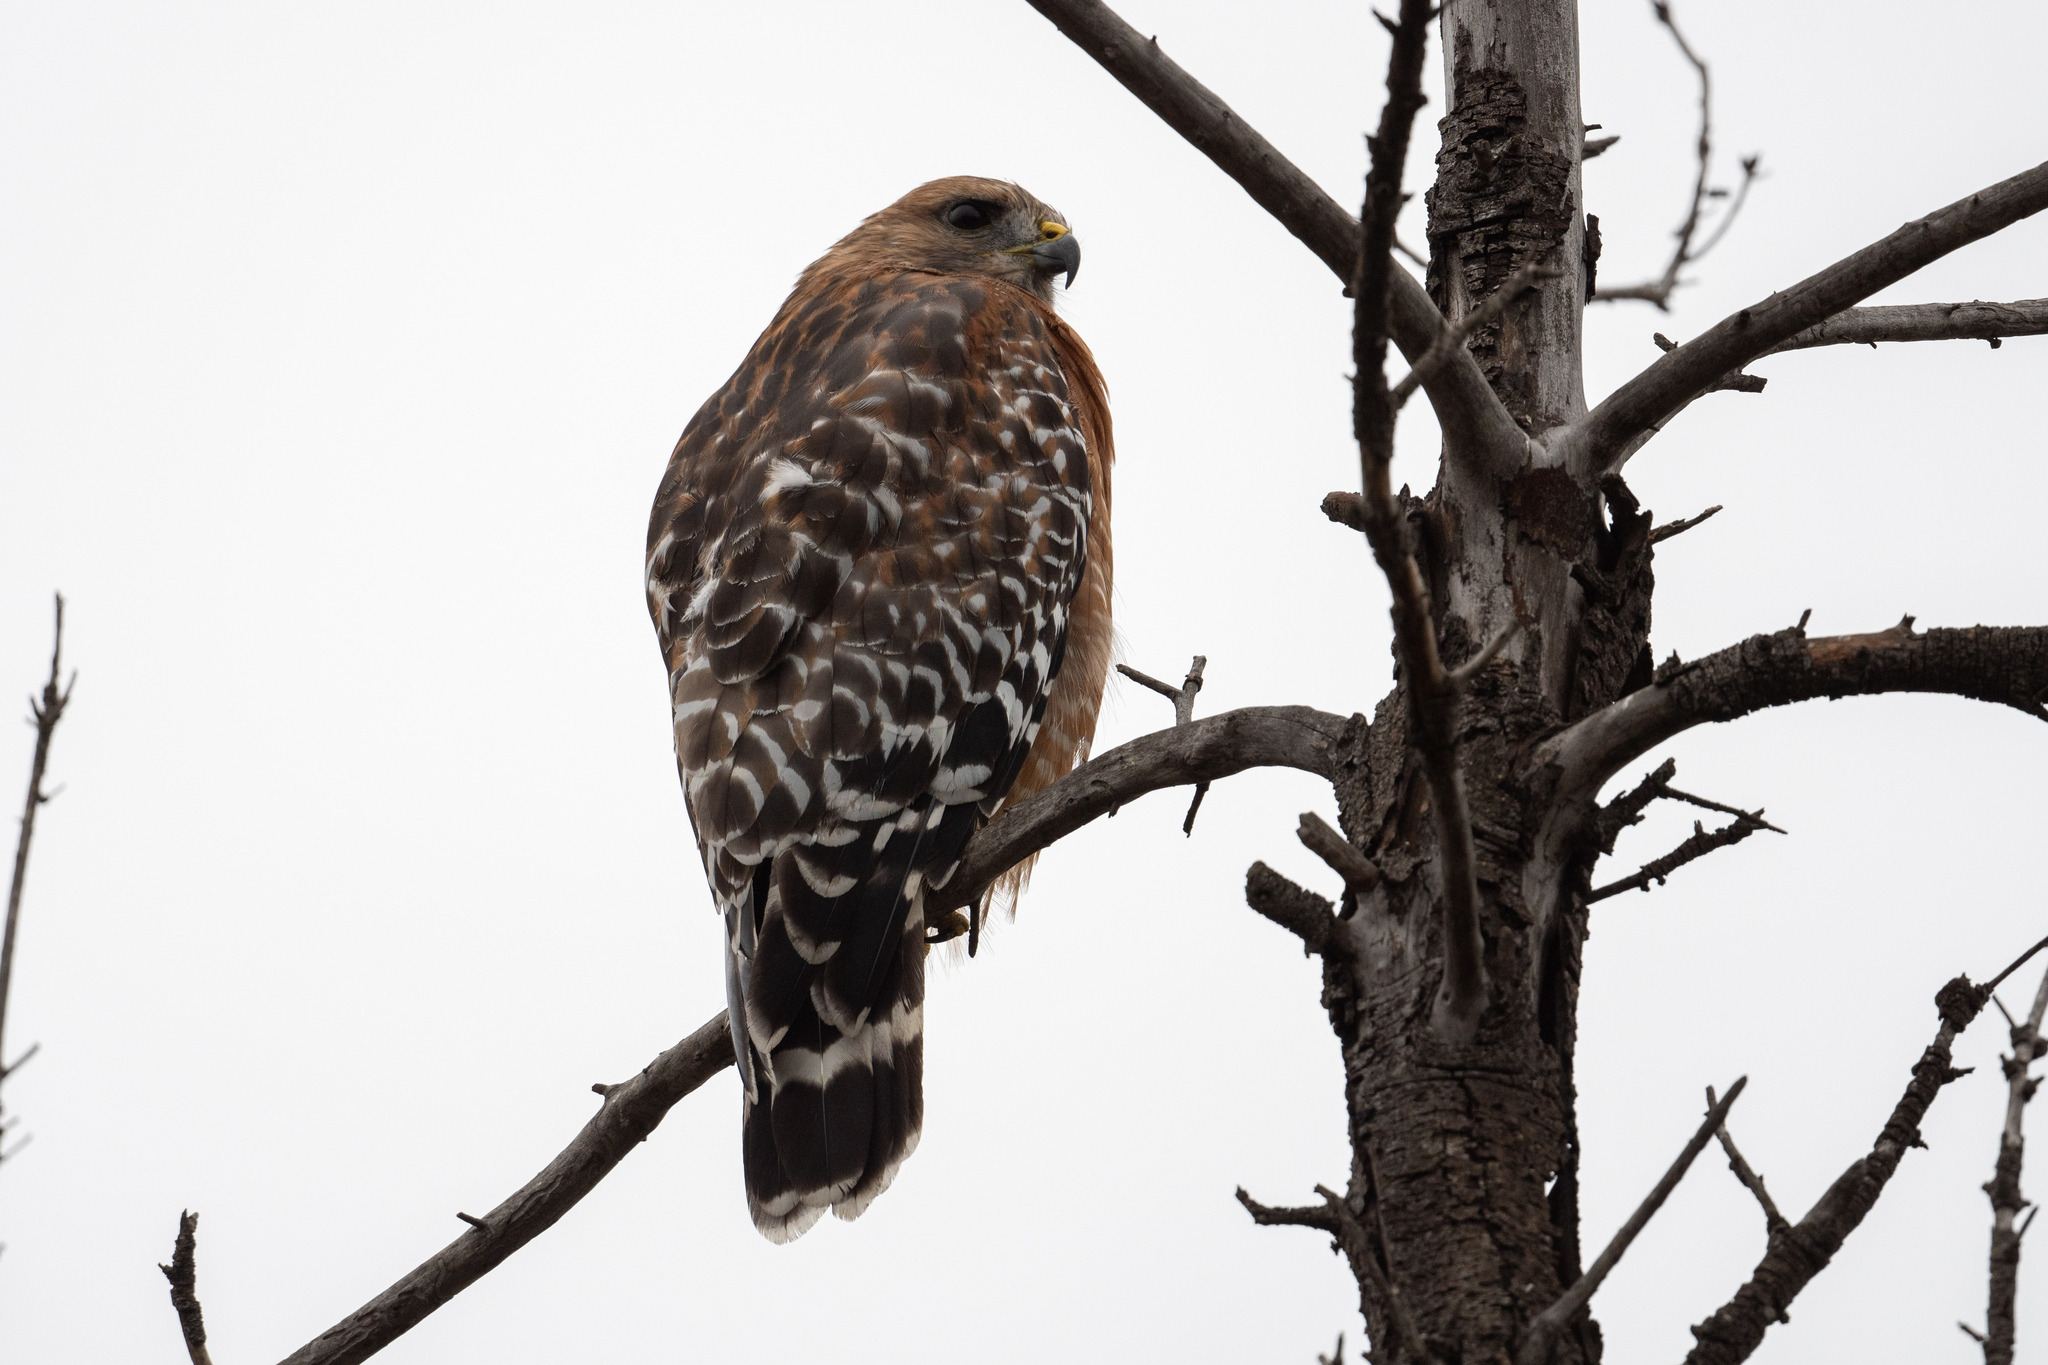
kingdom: Animalia
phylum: Chordata
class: Aves
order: Accipitriformes
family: Accipitridae
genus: Buteo
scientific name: Buteo lineatus
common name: Red-shouldered hawk
